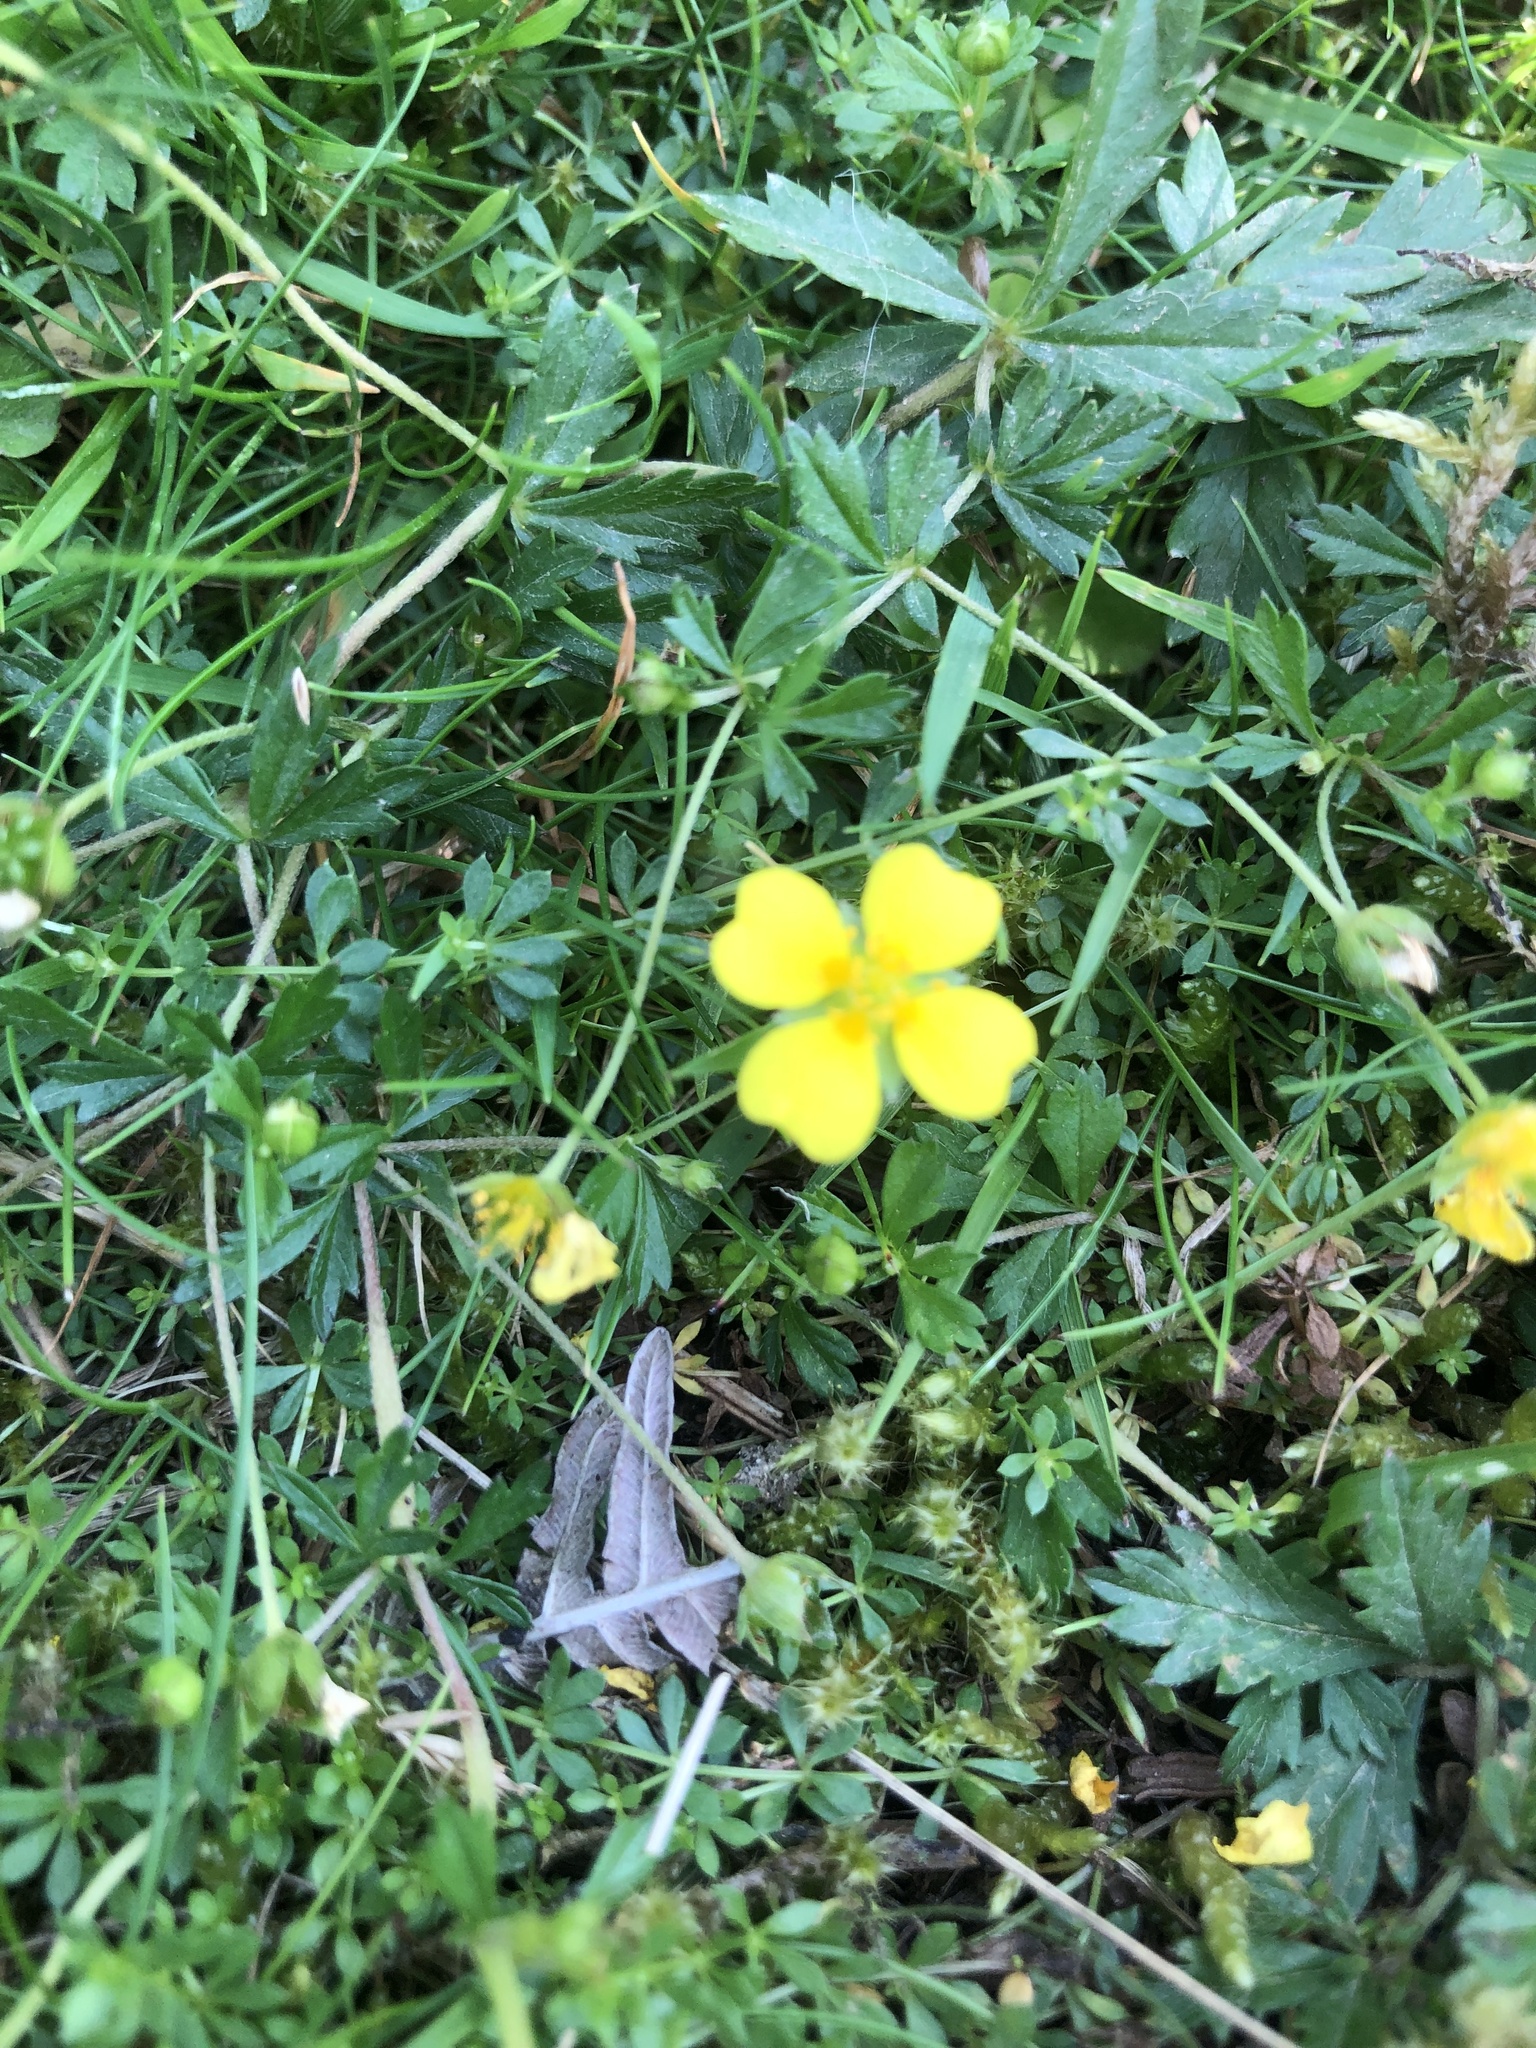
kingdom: Plantae
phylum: Tracheophyta
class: Magnoliopsida
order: Rosales
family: Rosaceae
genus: Potentilla
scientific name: Potentilla erecta
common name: Tormentil
